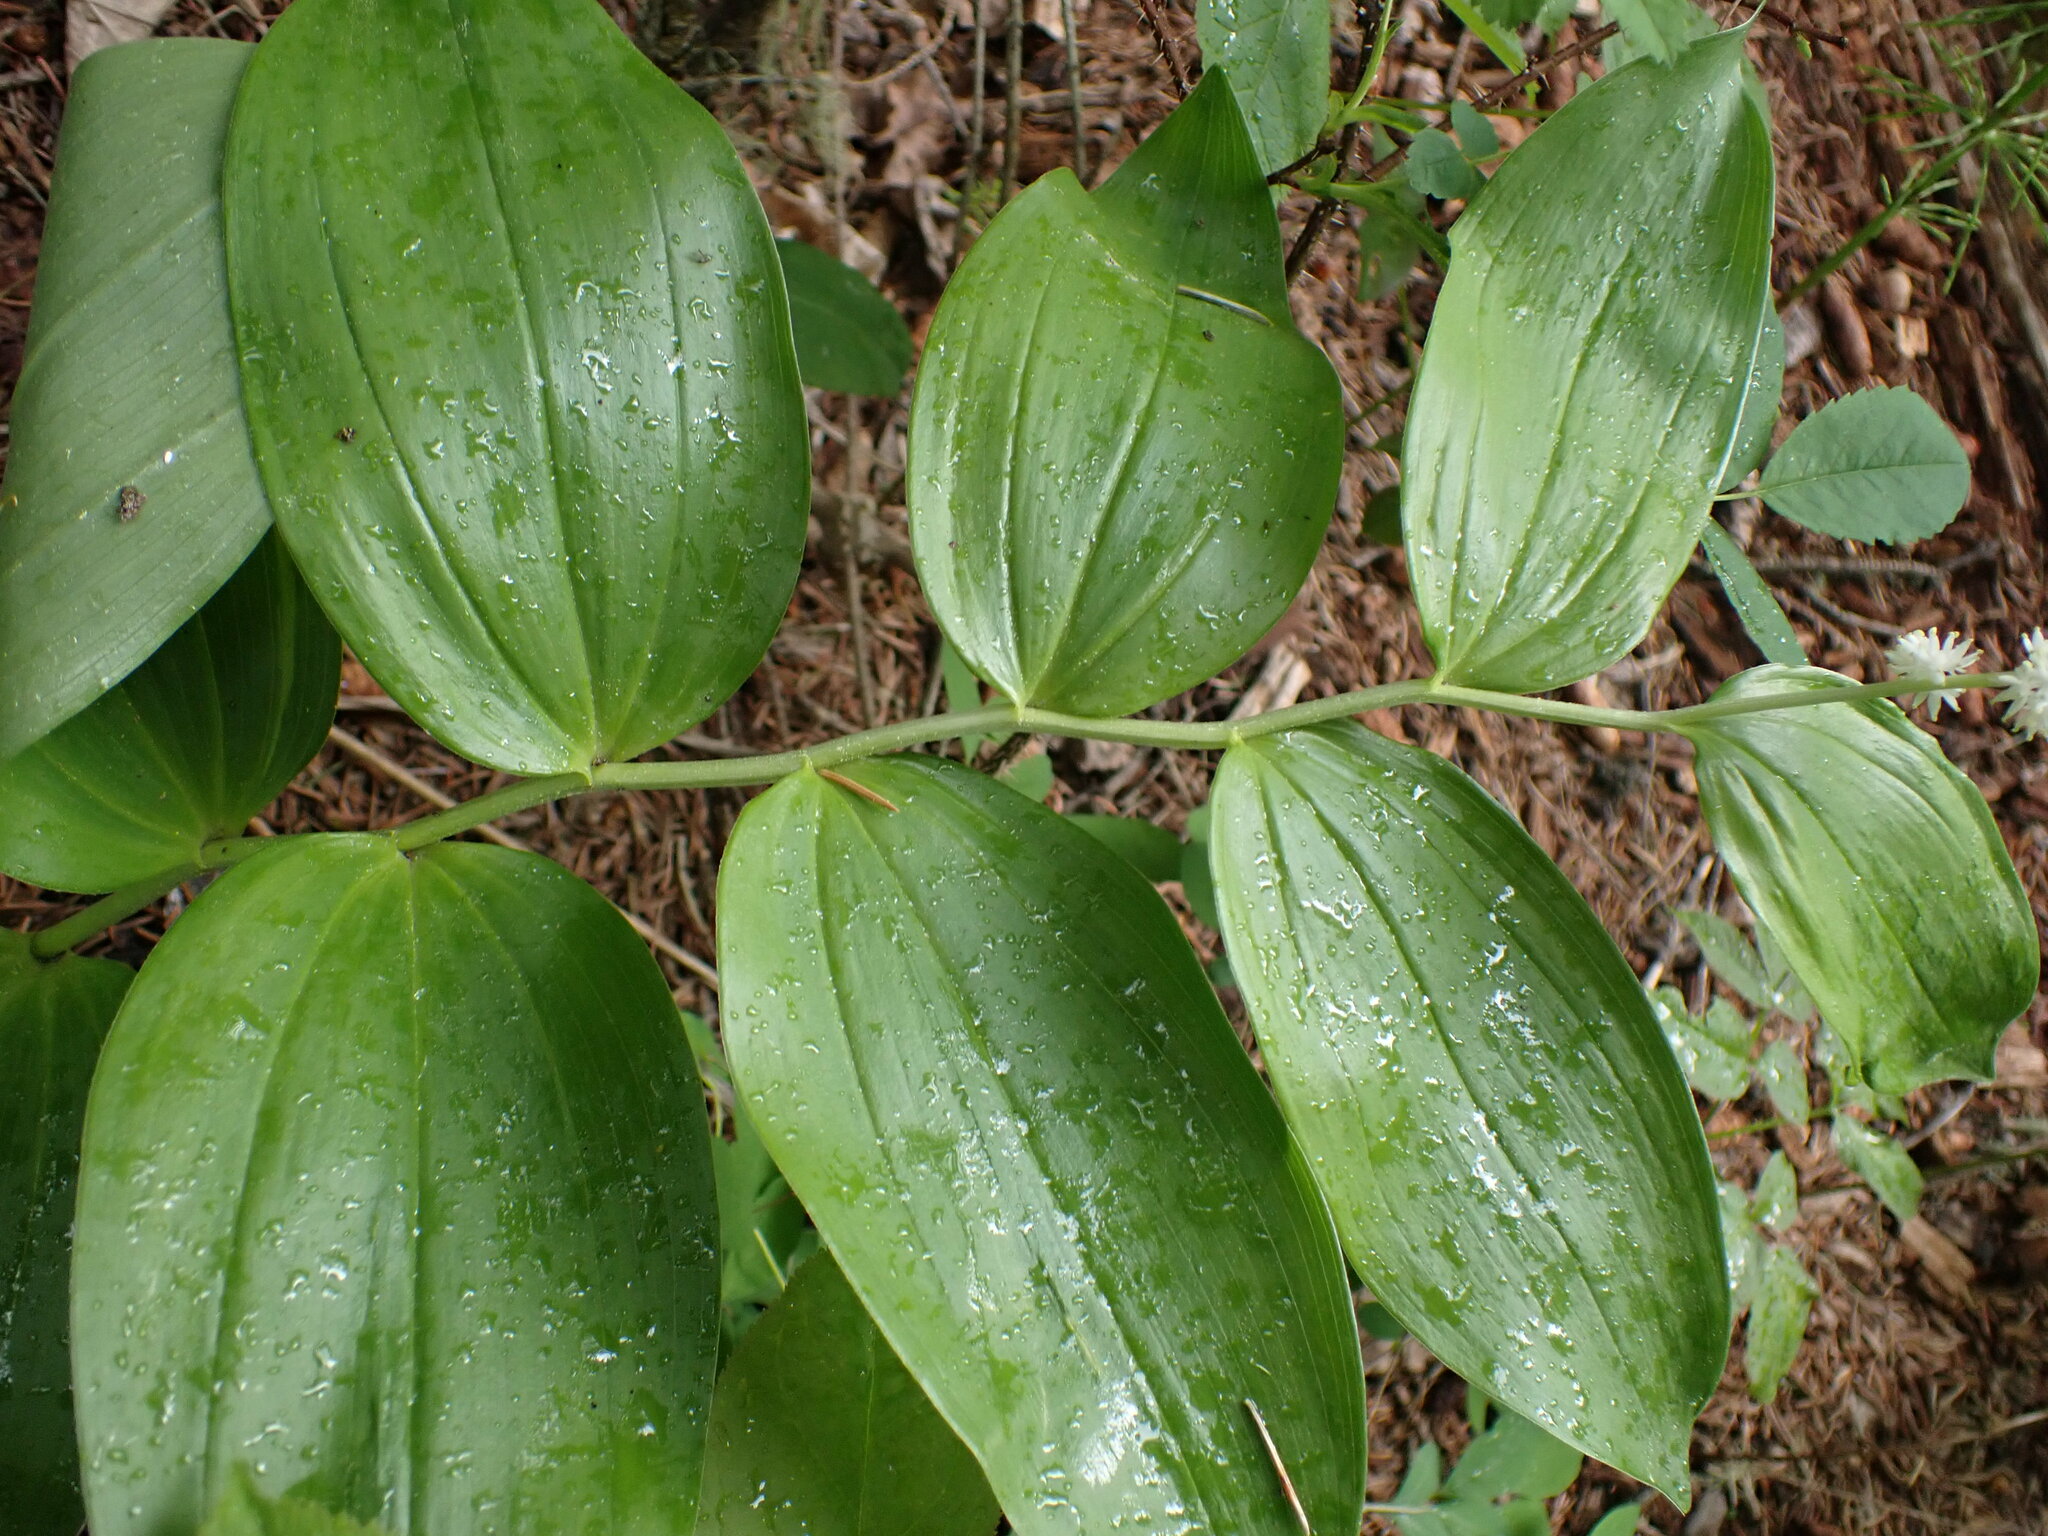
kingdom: Plantae
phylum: Tracheophyta
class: Liliopsida
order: Asparagales
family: Asparagaceae
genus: Maianthemum
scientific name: Maianthemum racemosum
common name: False spikenard
